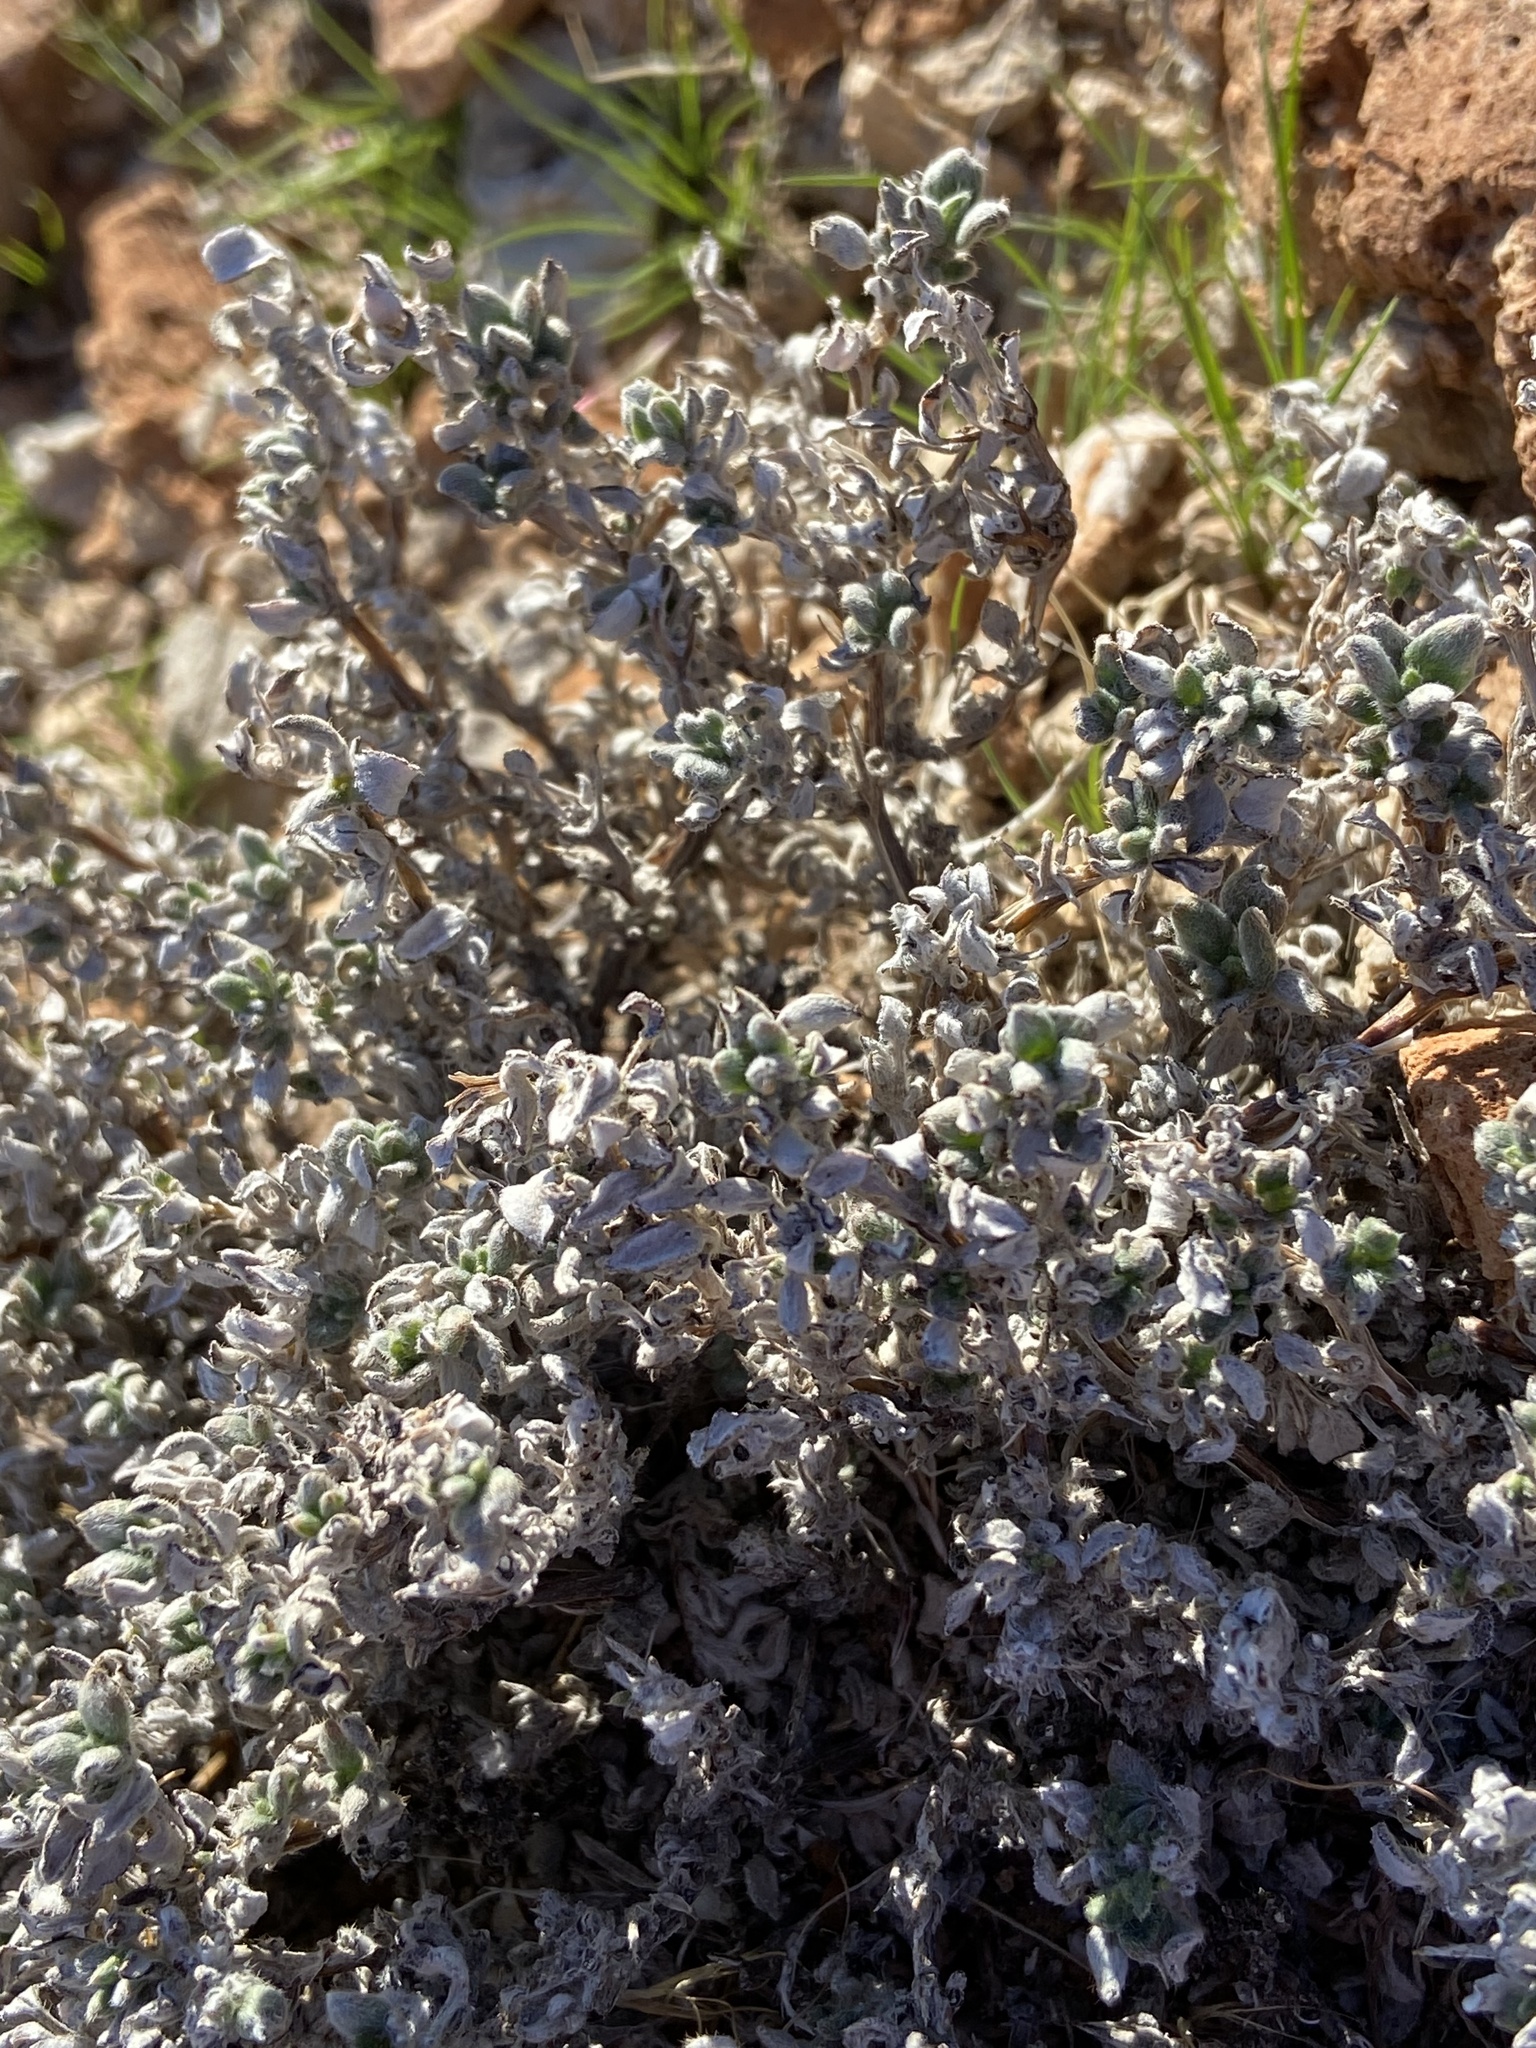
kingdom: Plantae
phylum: Tracheophyta
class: Magnoliopsida
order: Boraginales
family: Ehretiaceae
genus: Tiquilia
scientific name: Tiquilia canescens
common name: Hairy tiquilia
